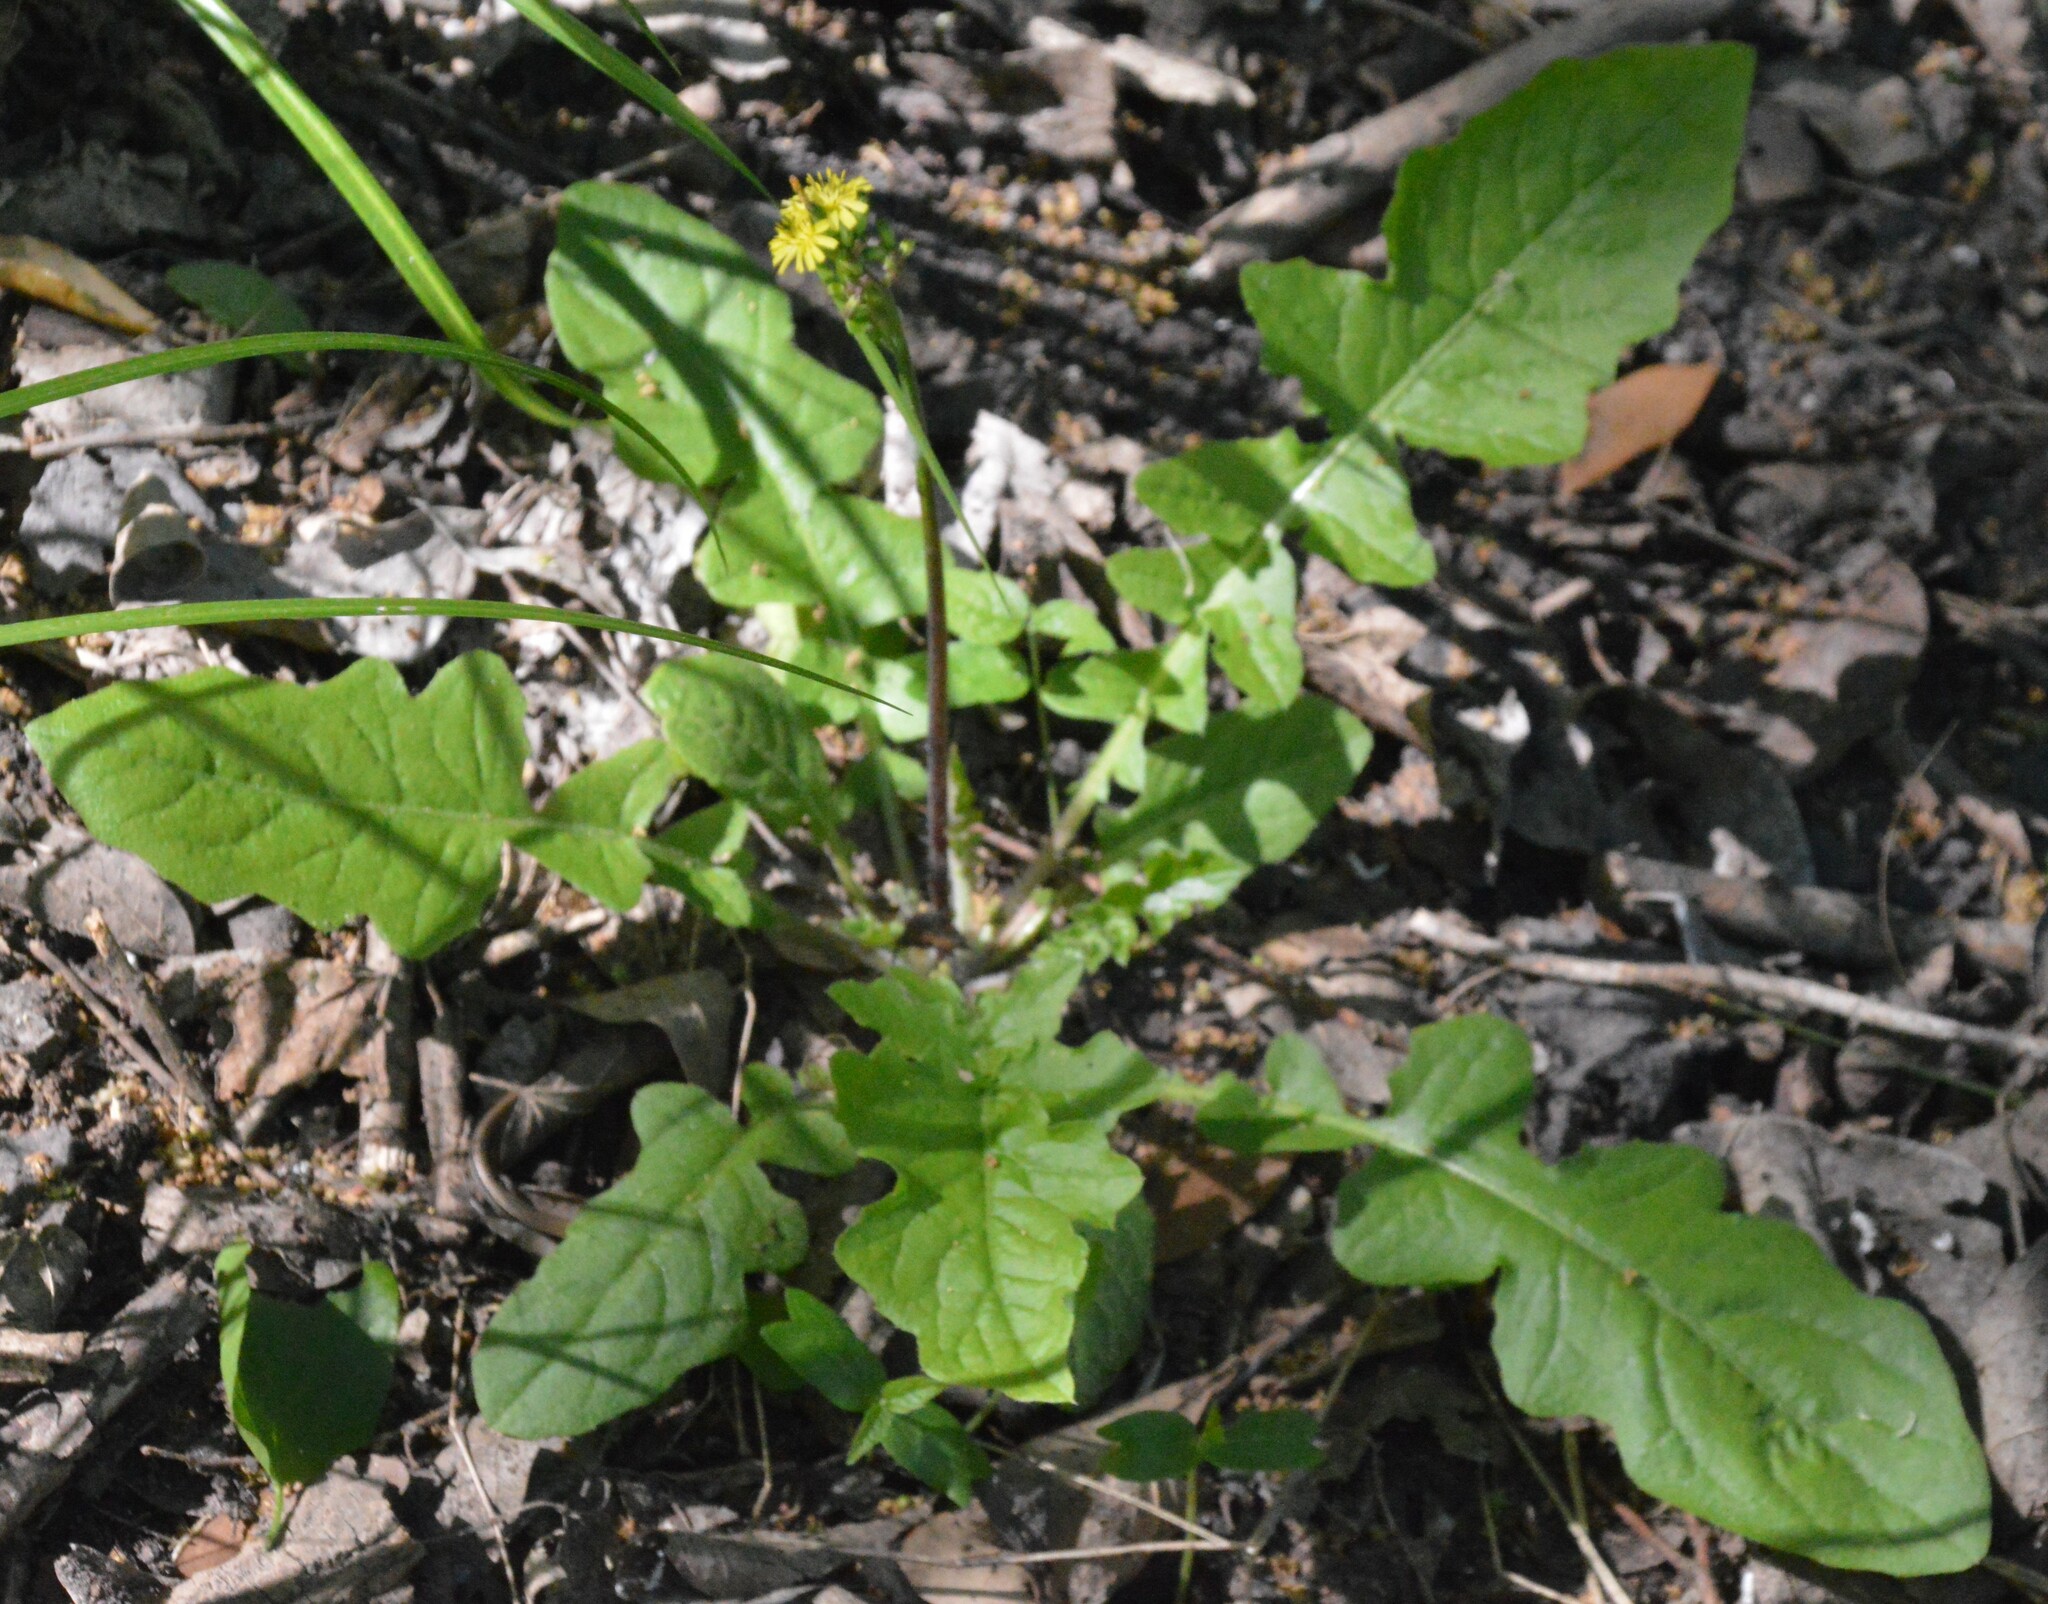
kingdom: Plantae
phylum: Tracheophyta
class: Magnoliopsida
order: Asterales
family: Asteraceae
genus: Youngia
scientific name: Youngia japonica
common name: Oriental false hawksbeard
